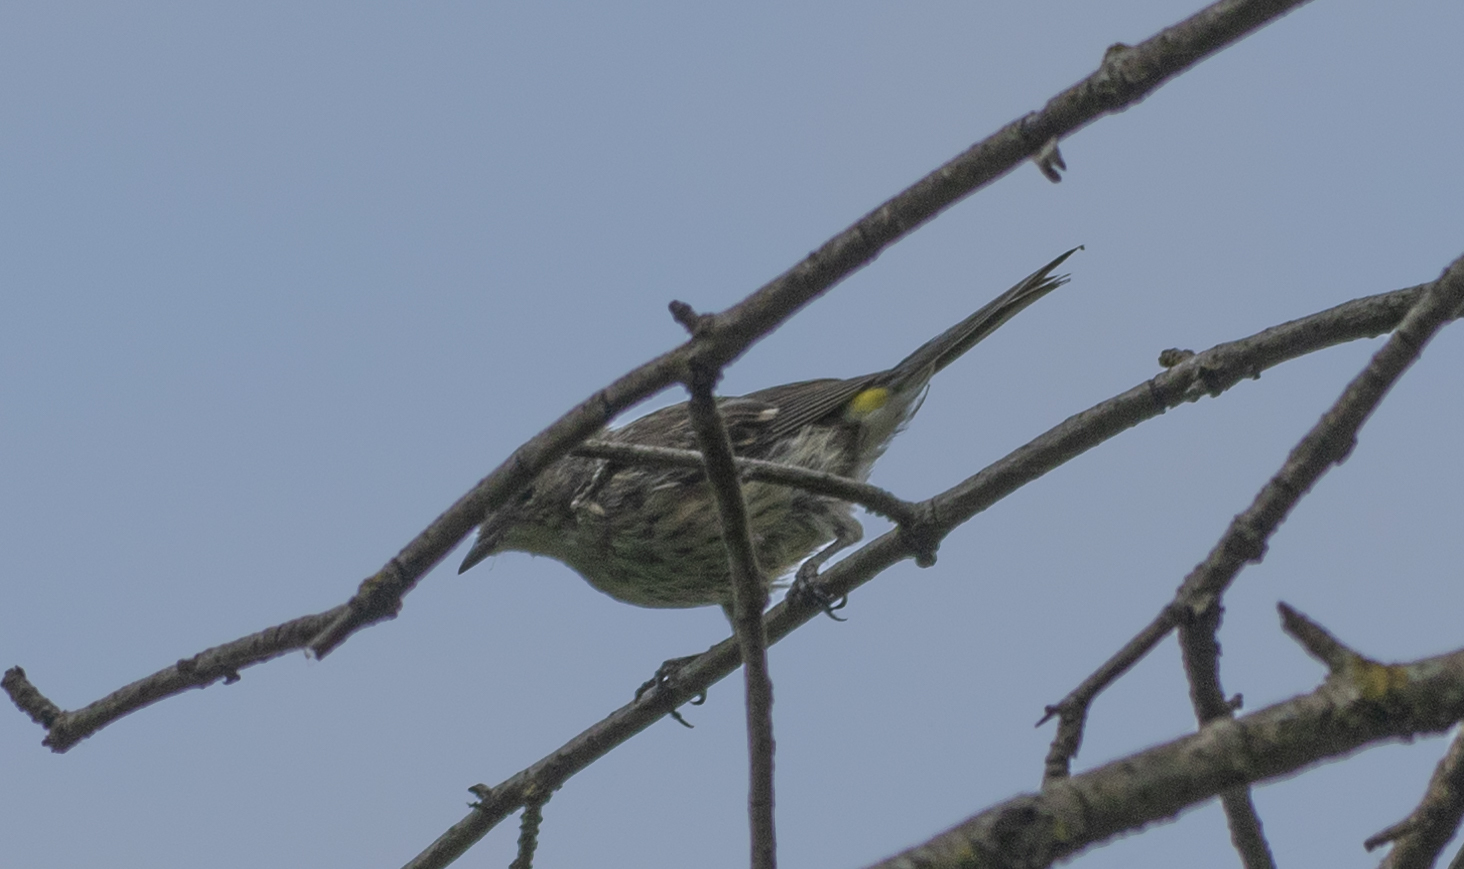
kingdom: Animalia
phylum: Chordata
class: Aves
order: Passeriformes
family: Parulidae
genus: Setophaga
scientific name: Setophaga coronata
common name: Myrtle warbler
